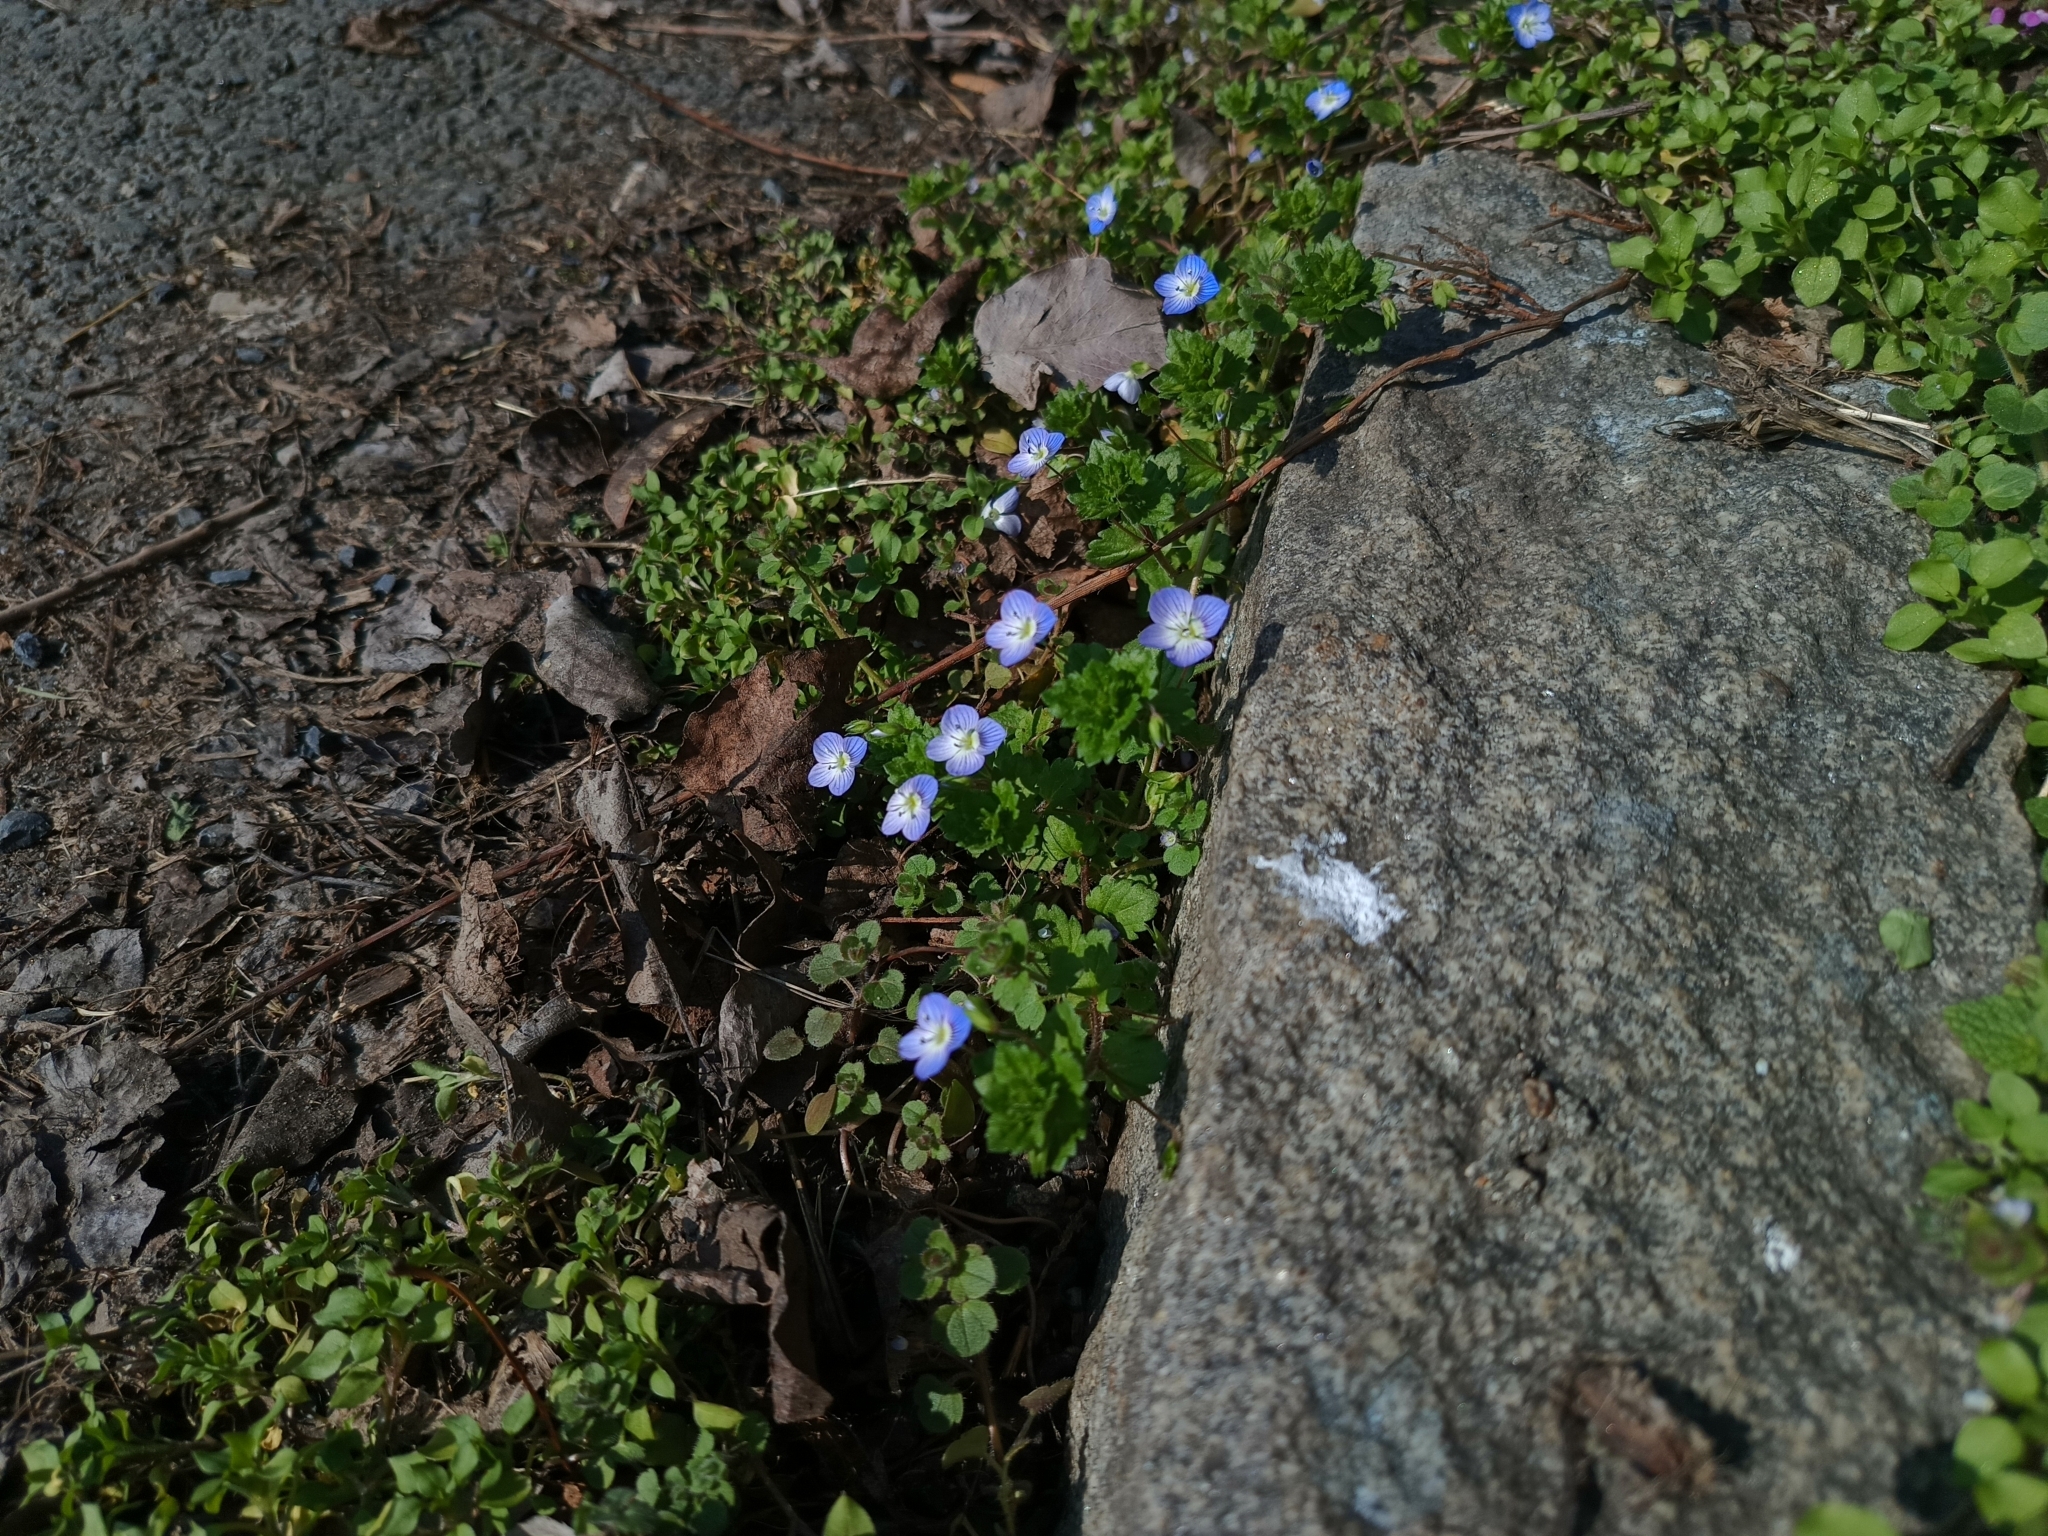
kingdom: Plantae
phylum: Tracheophyta
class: Magnoliopsida
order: Lamiales
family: Plantaginaceae
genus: Veronica
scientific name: Veronica persica
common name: Common field-speedwell
